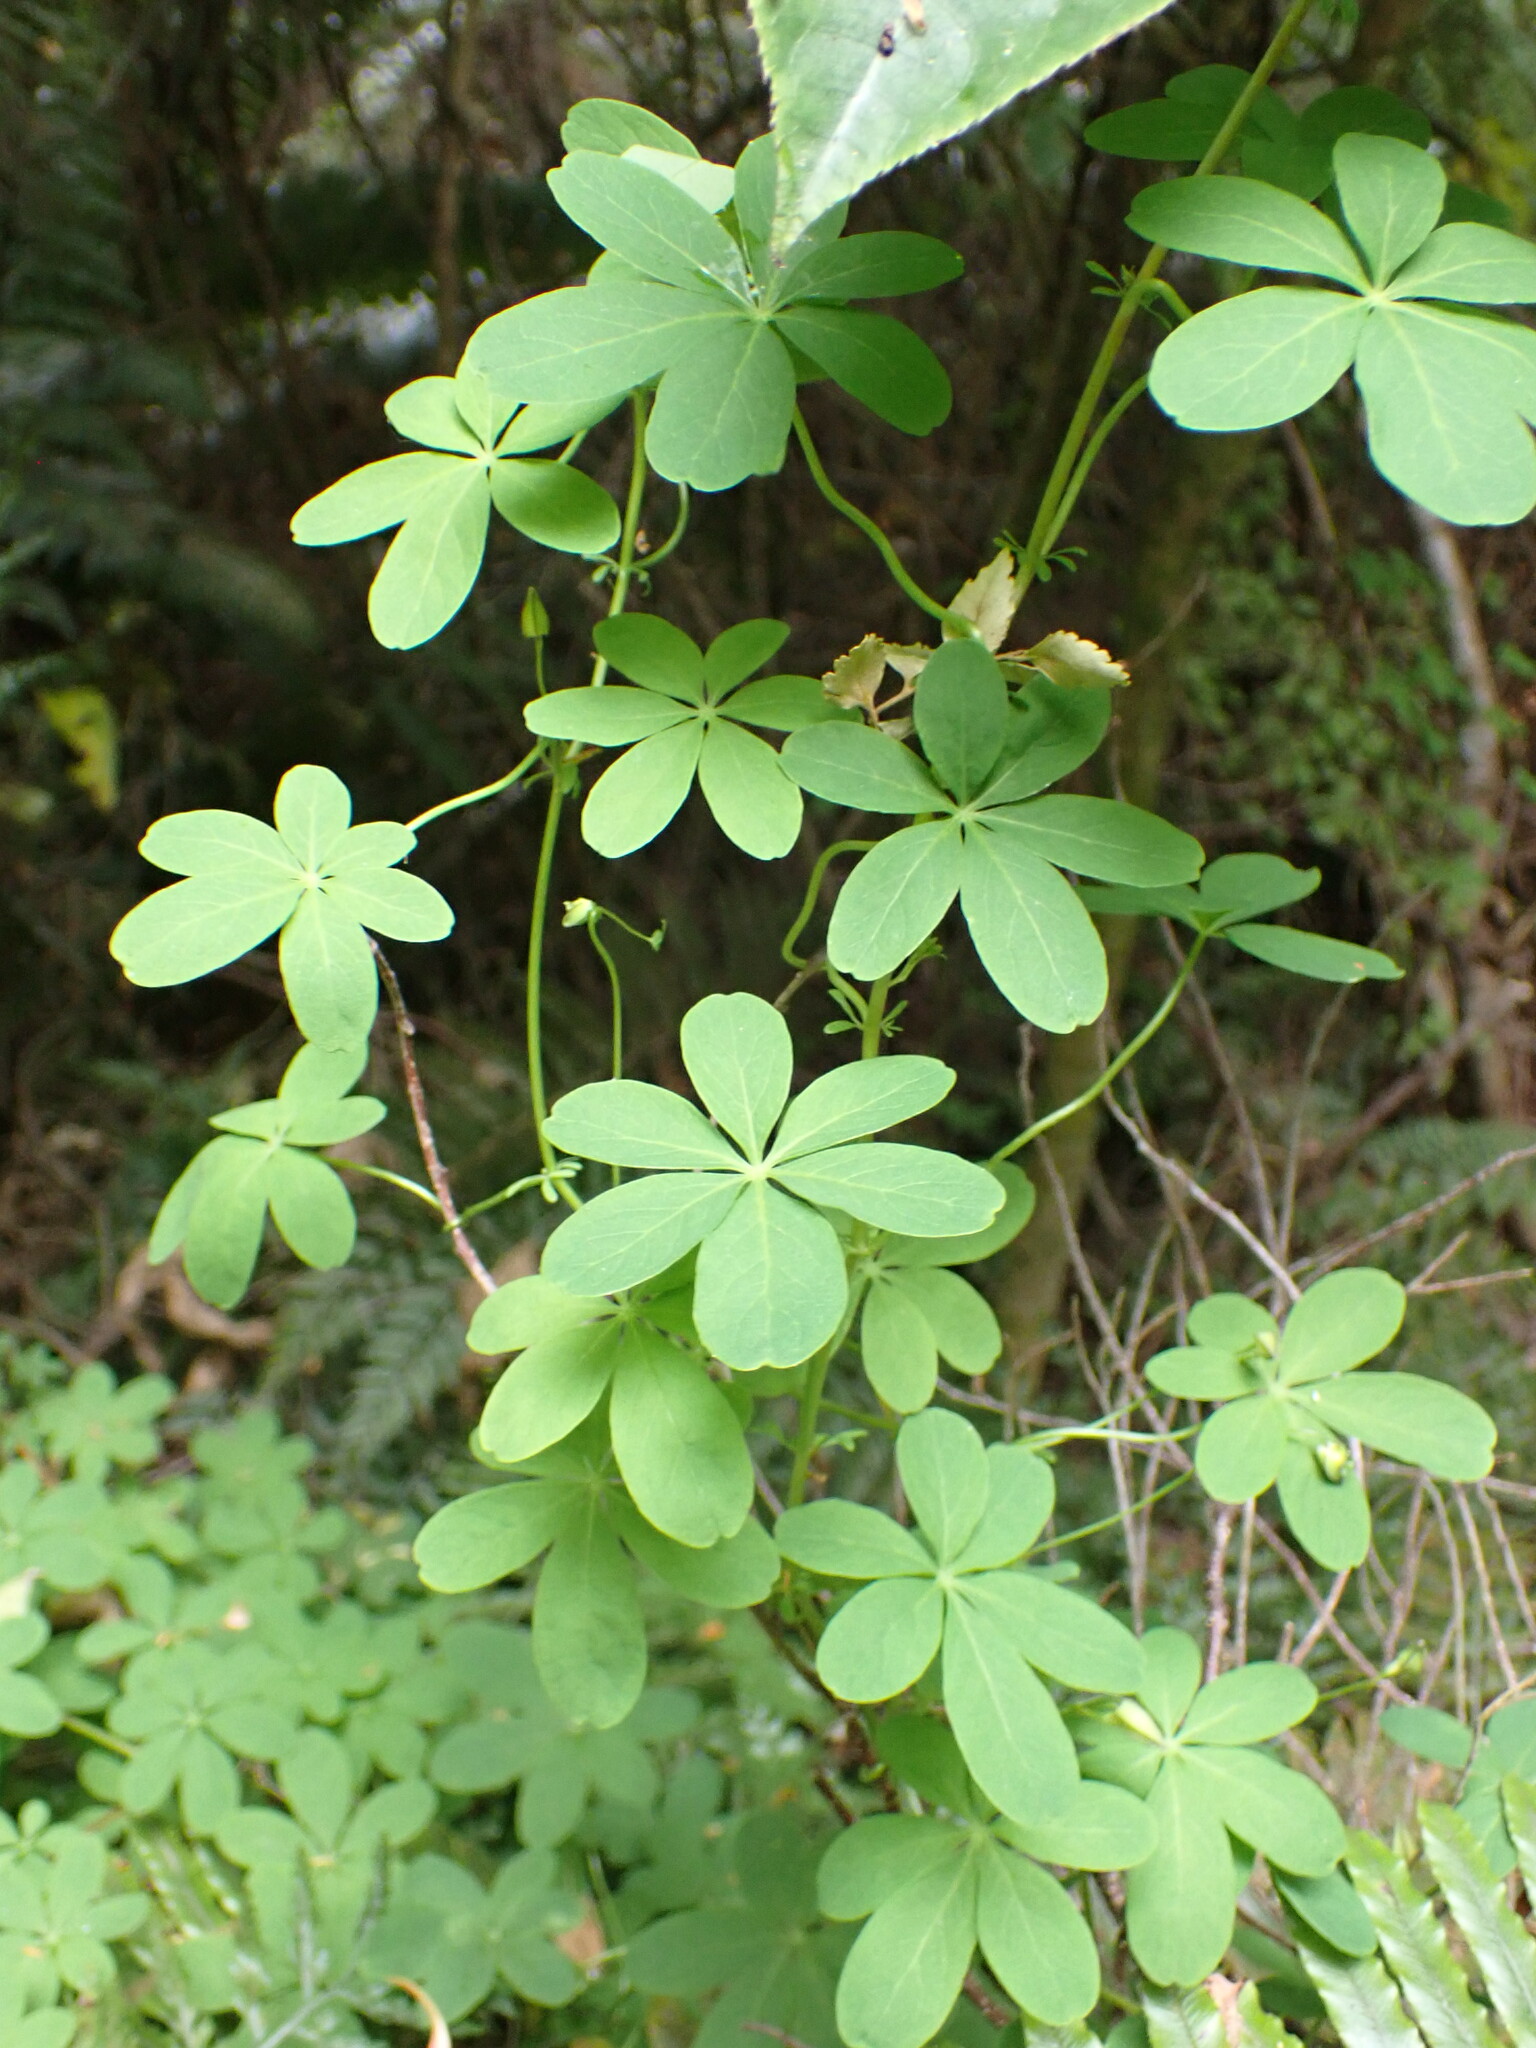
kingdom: Plantae
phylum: Tracheophyta
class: Magnoliopsida
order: Brassicales
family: Tropaeolaceae
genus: Tropaeolum
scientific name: Tropaeolum speciosum
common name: Flame nasturtium
